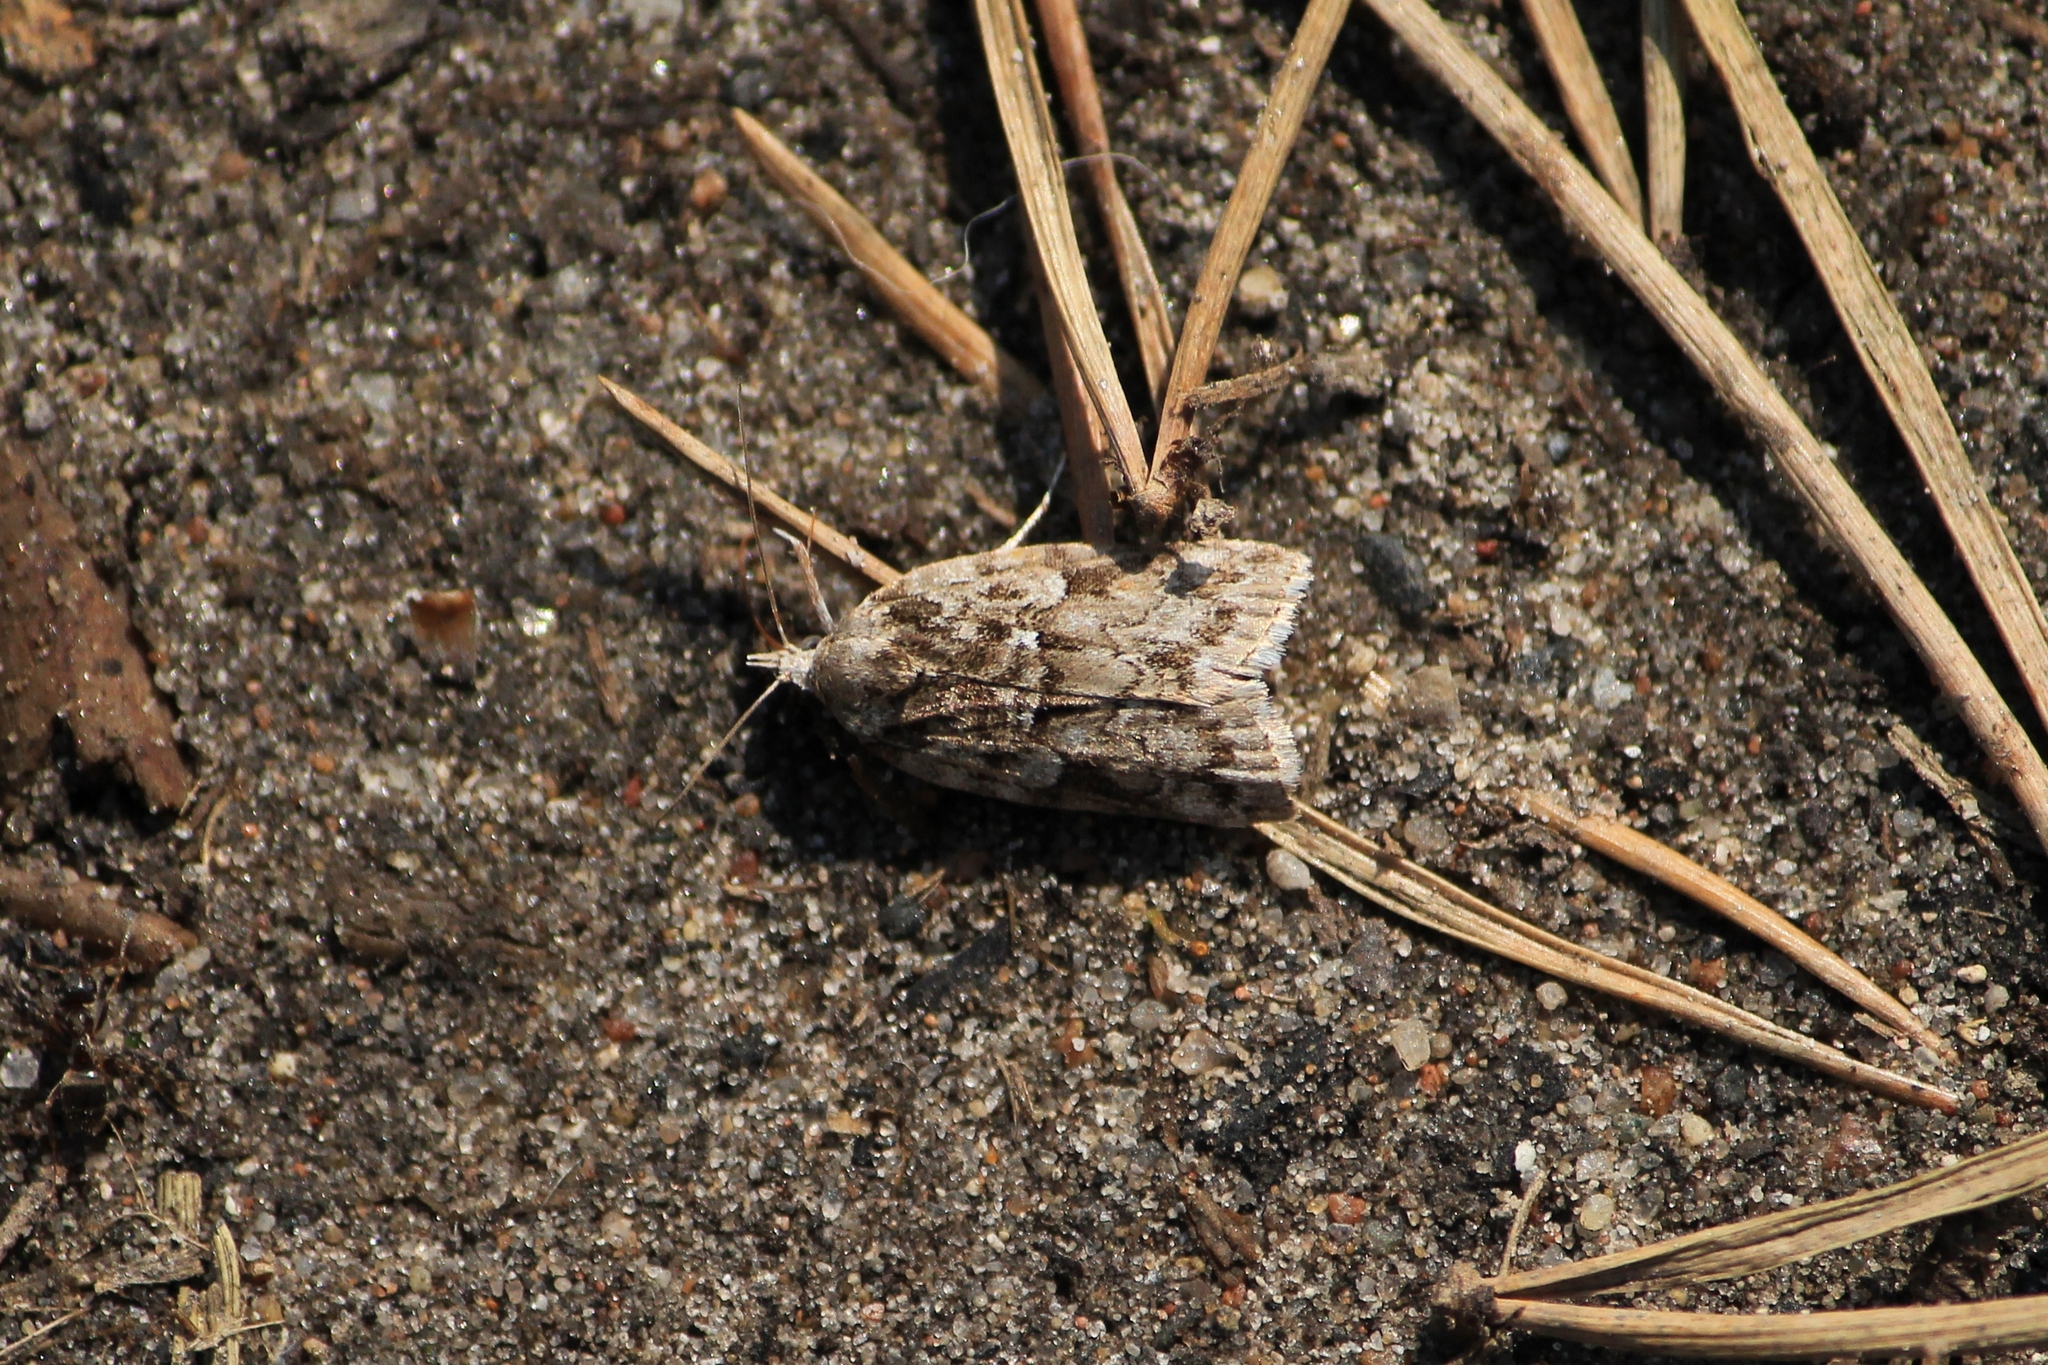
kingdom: Animalia
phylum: Arthropoda
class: Insecta
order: Lepidoptera
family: Nolidae
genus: Nycteola
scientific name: Nycteola degenerana
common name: Swallow nycteoline
